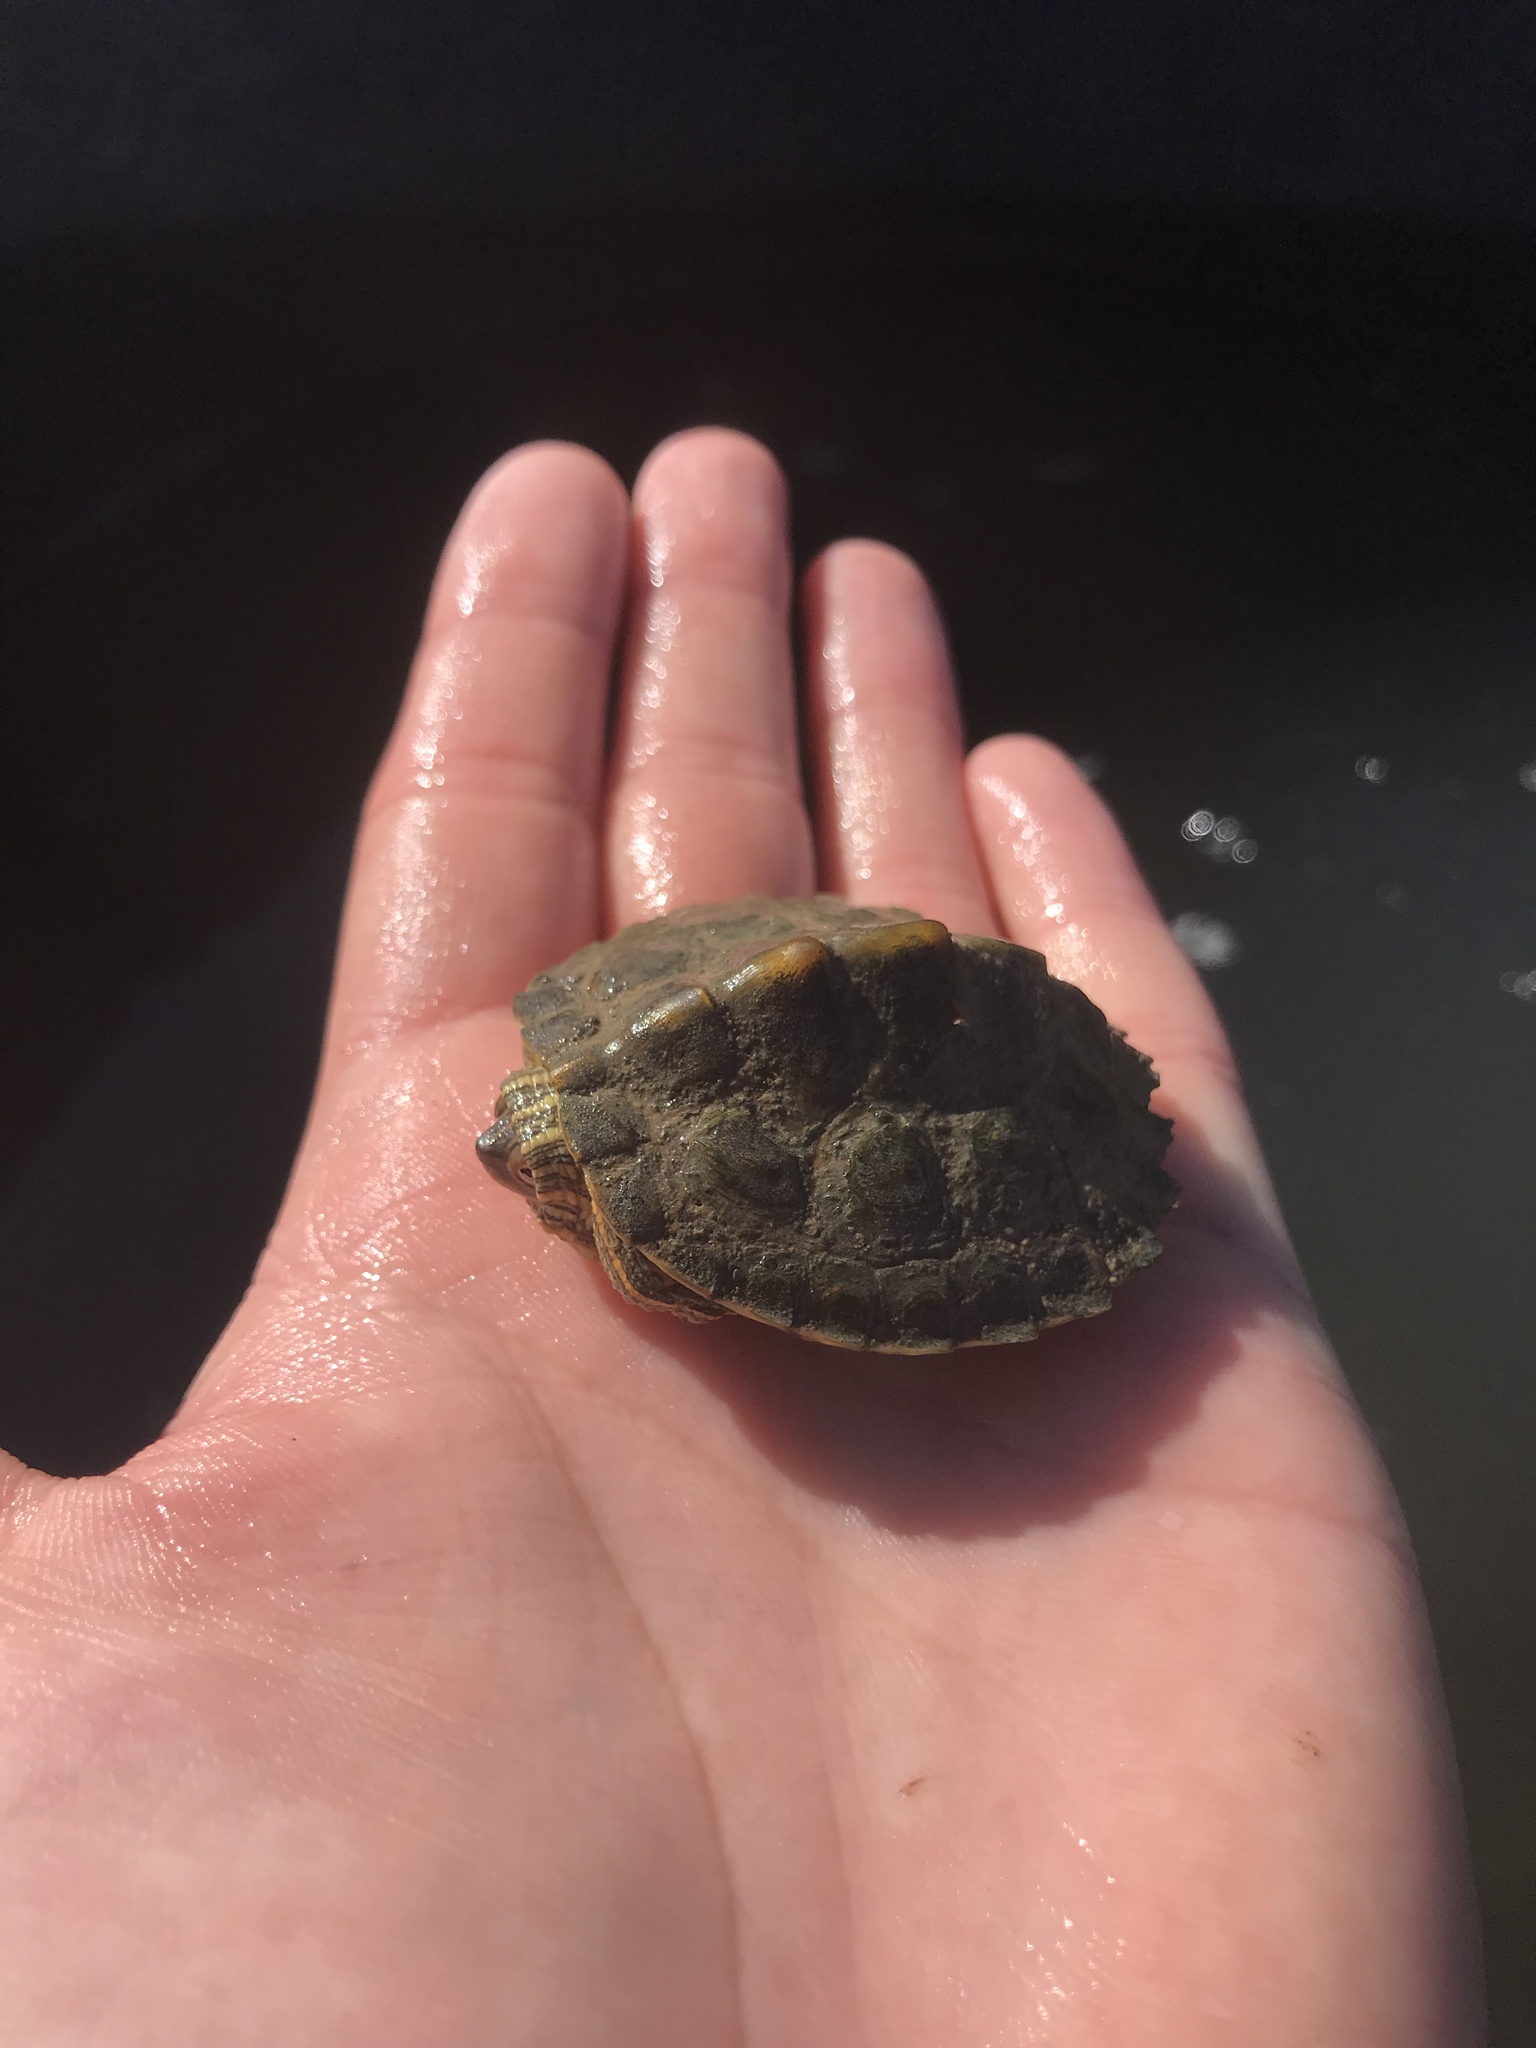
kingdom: Animalia
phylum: Chordata
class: Testudines
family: Emydidae
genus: Graptemys
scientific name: Graptemys versa
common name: Texas map turtle
